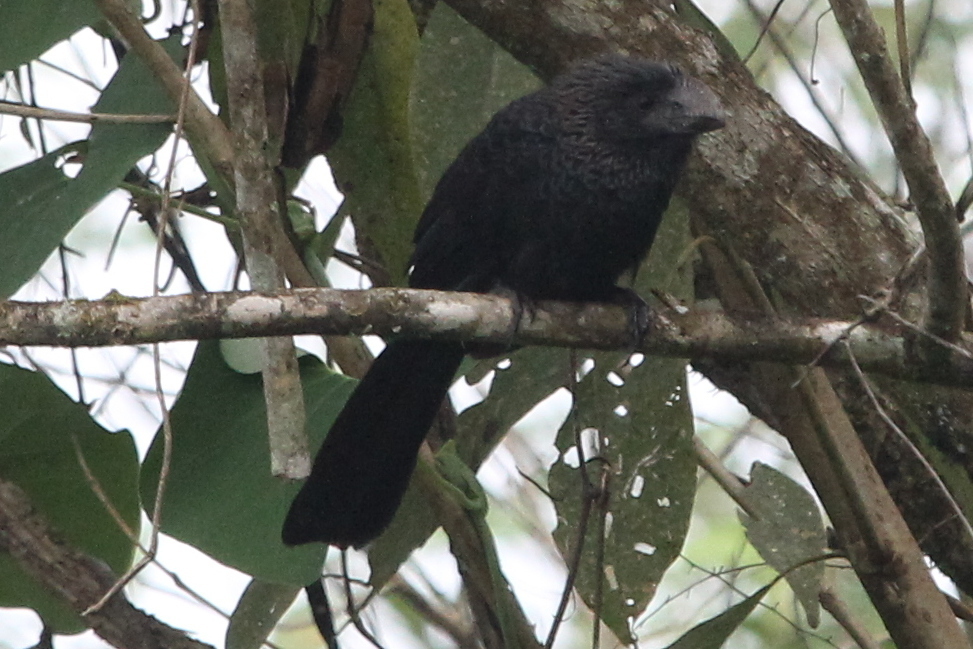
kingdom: Animalia
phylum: Chordata
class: Aves
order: Cuculiformes
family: Cuculidae
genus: Crotophaga
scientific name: Crotophaga ani
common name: Smooth-billed ani
